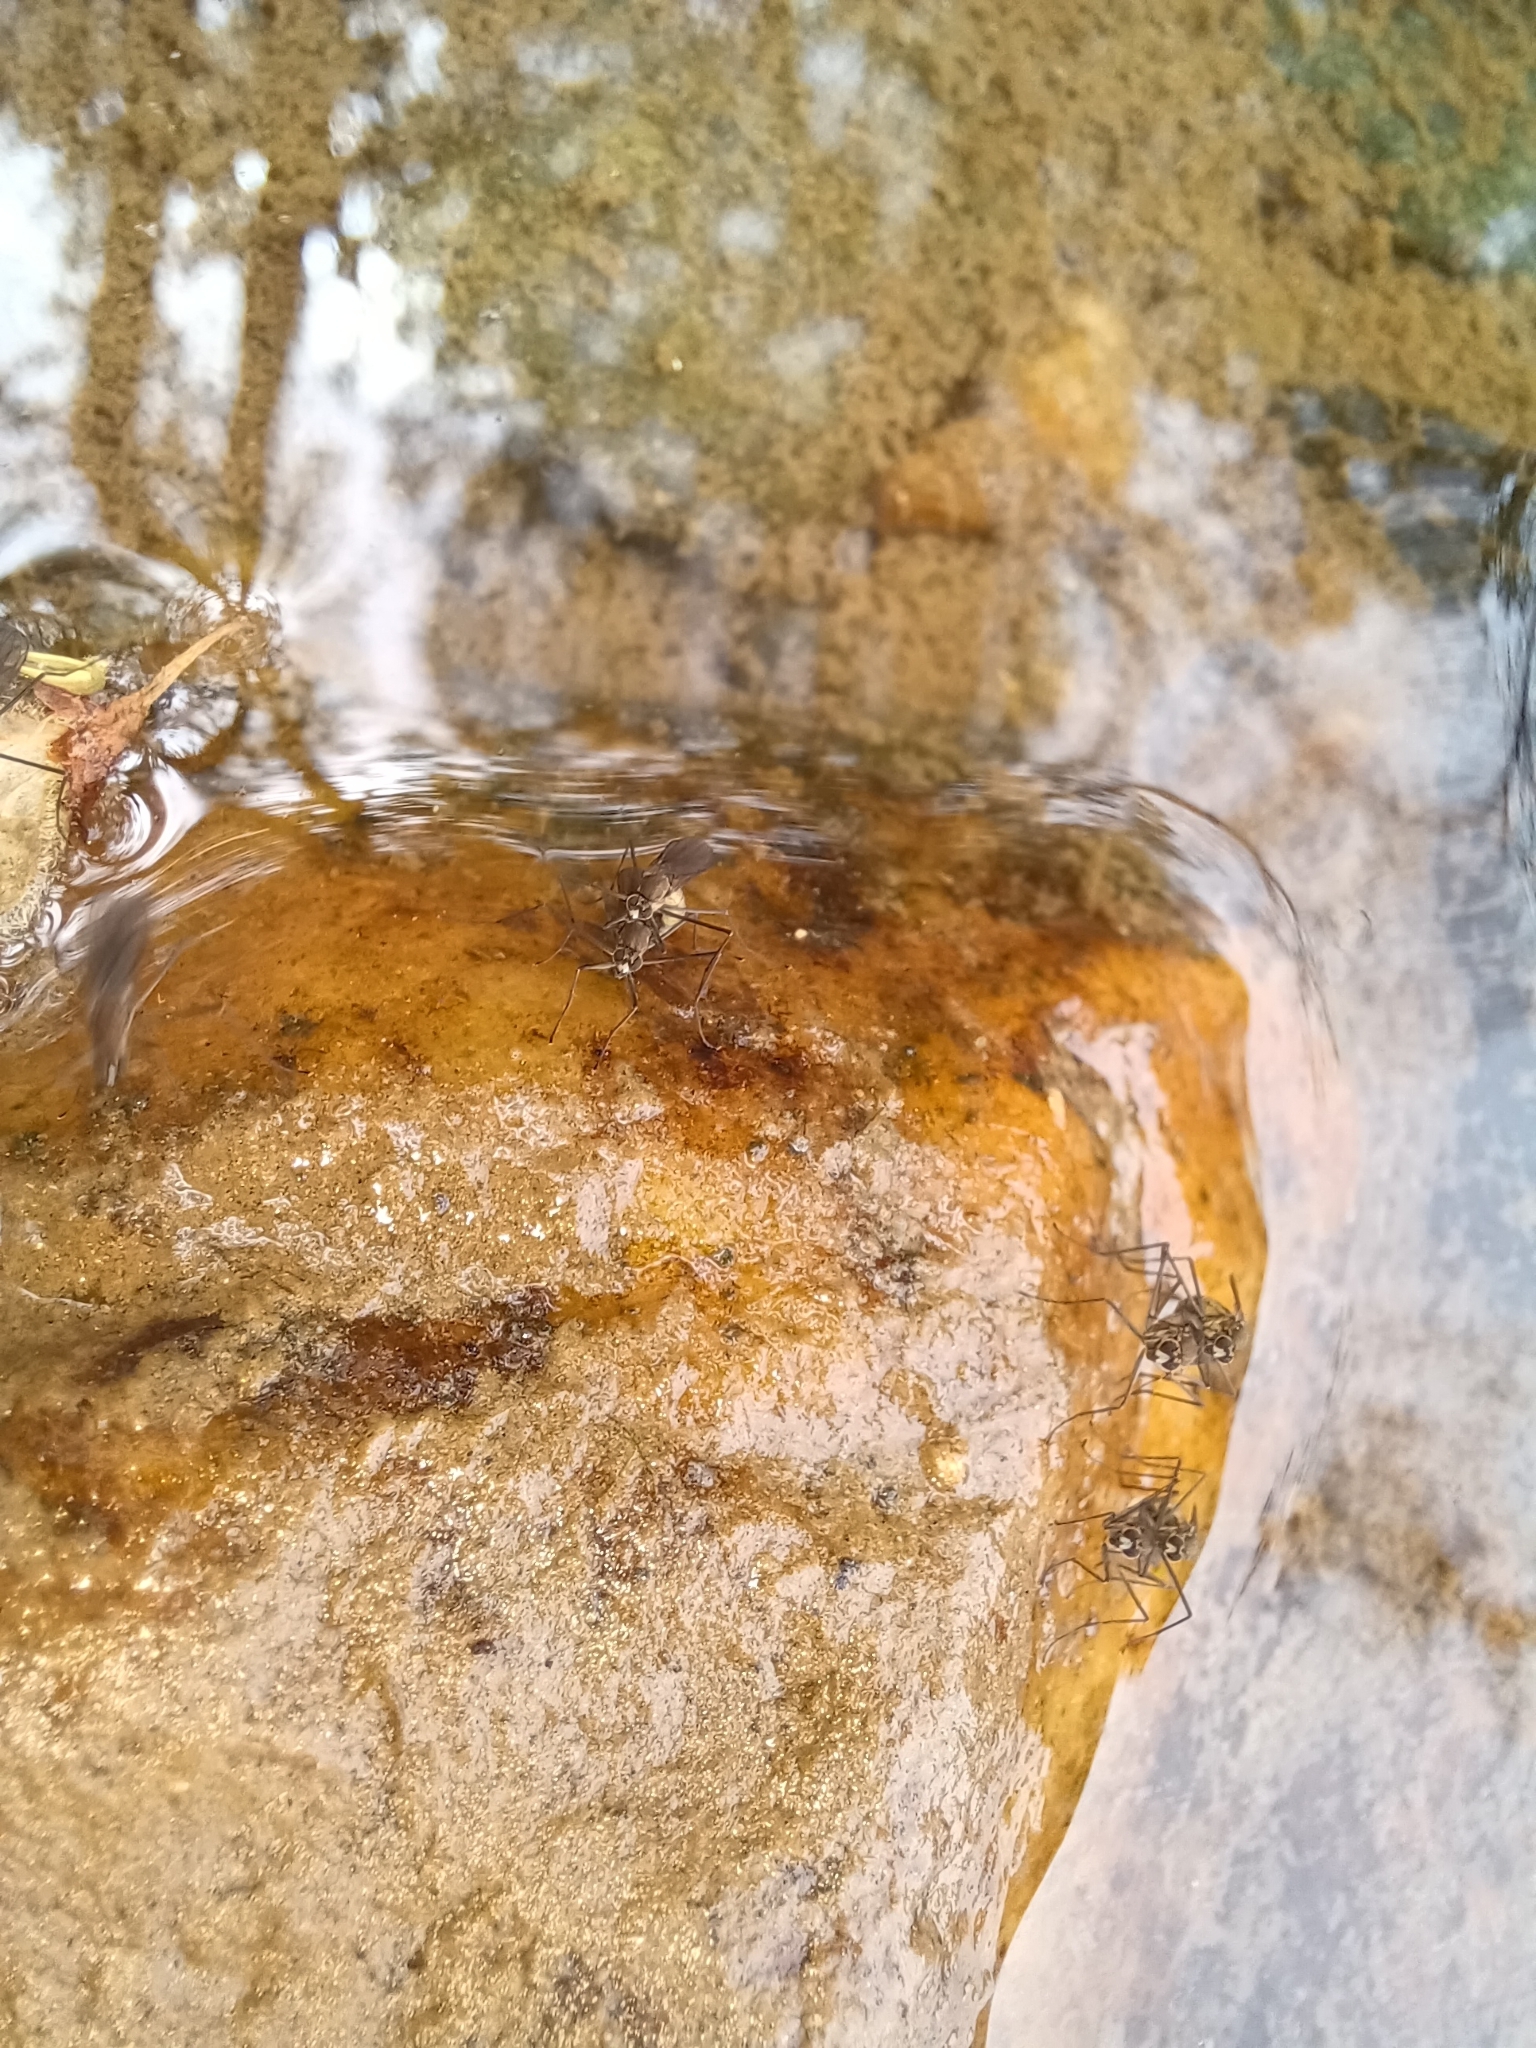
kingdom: Animalia
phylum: Arthropoda
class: Insecta
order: Diptera
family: Empididae
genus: Trichoclinocera
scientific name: Trichoclinocera pectinifemur
